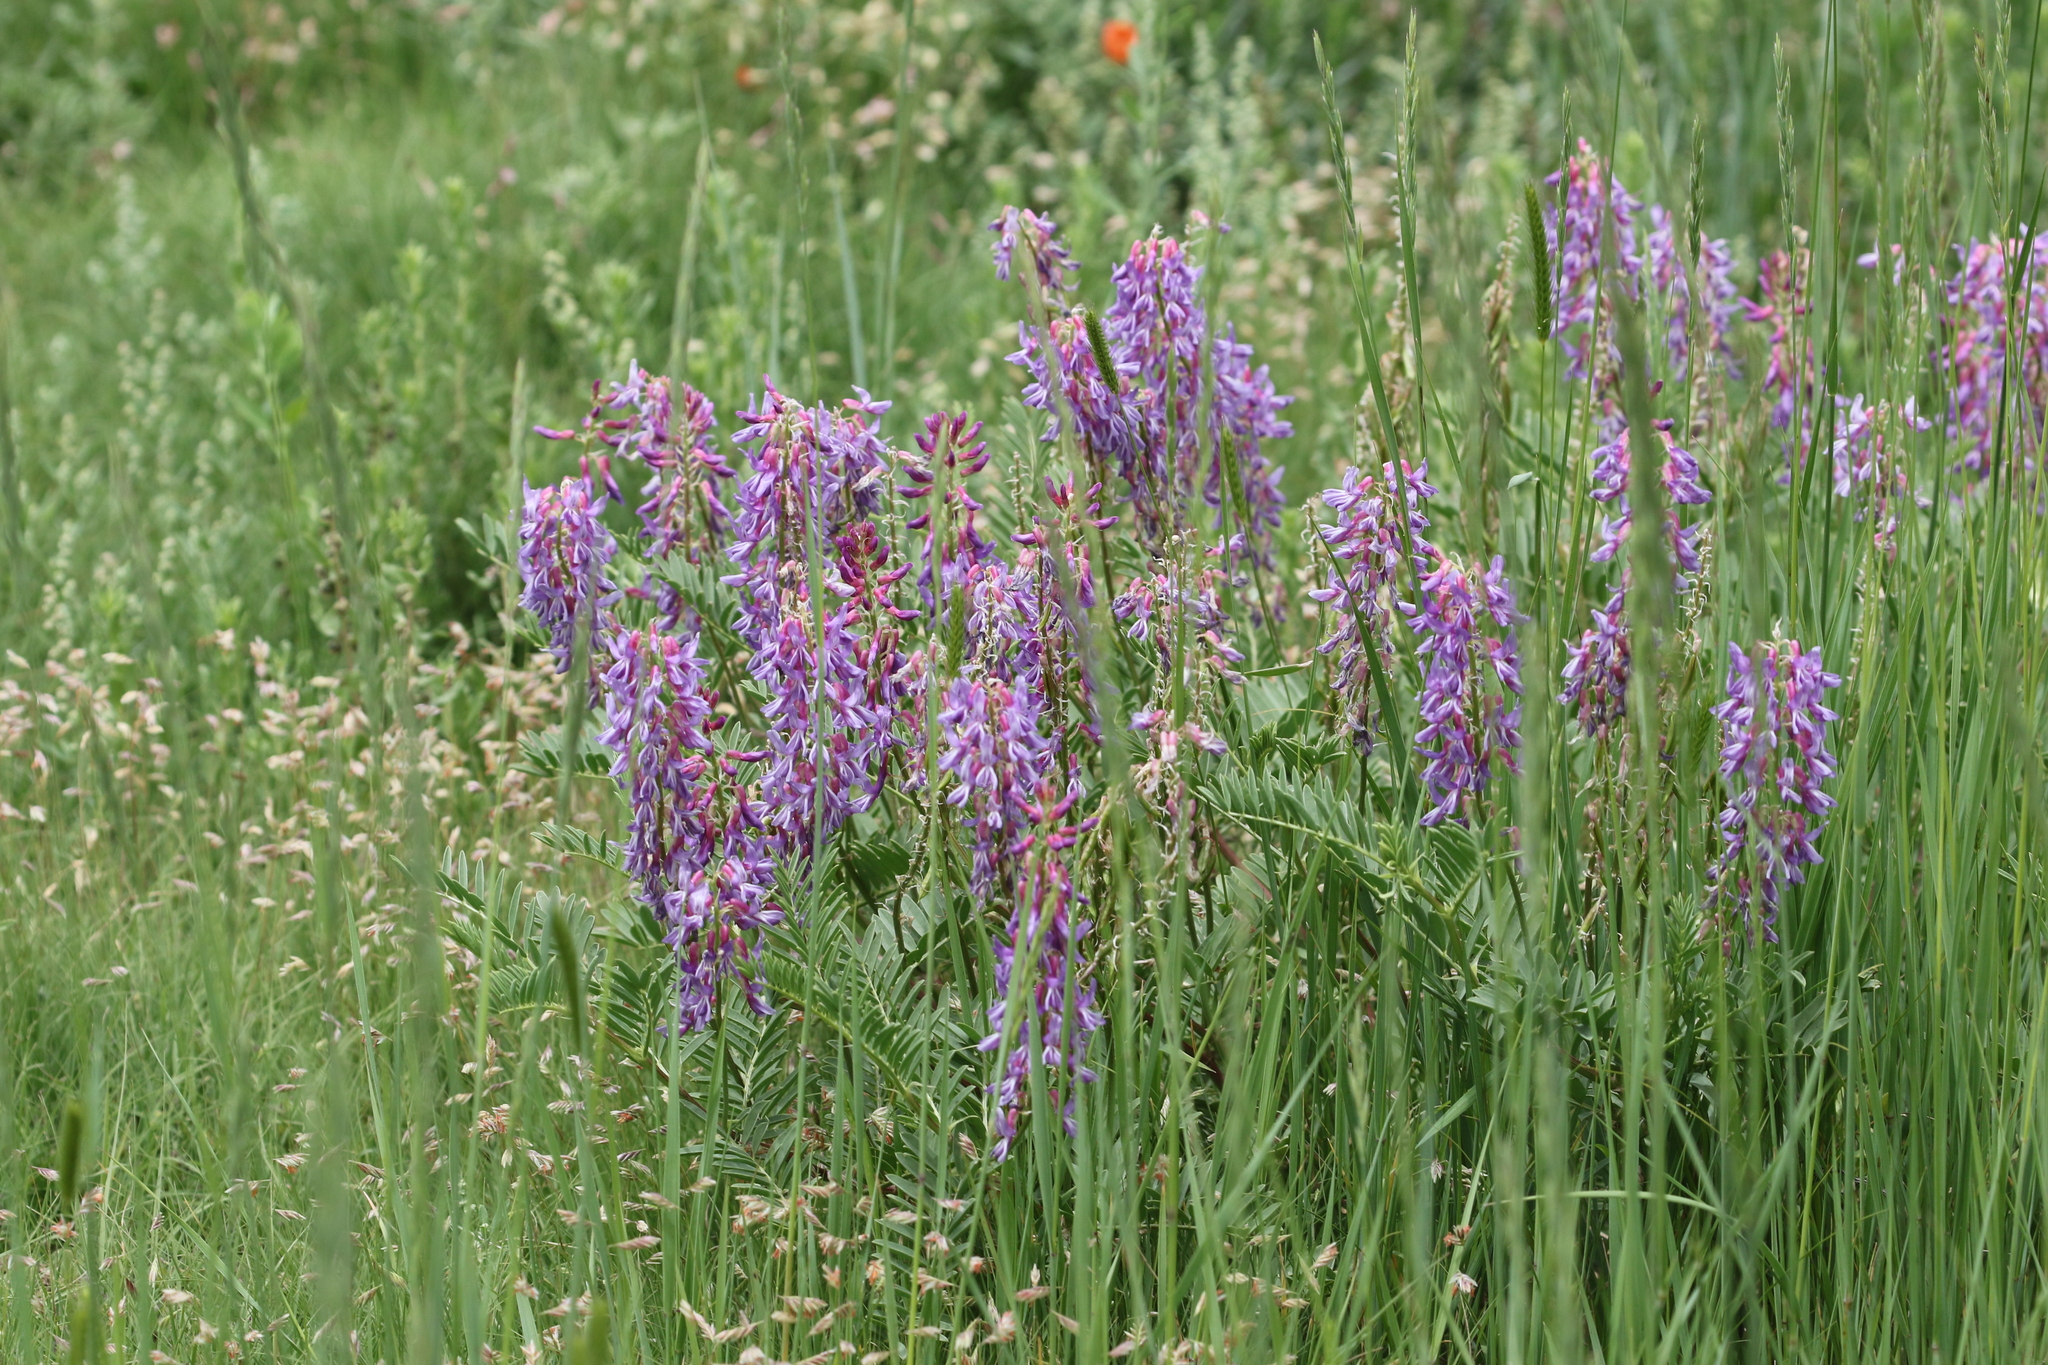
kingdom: Plantae
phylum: Tracheophyta
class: Magnoliopsida
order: Fabales
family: Fabaceae
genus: Astragalus
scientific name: Astragalus bisulcatus
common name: Two-groove milk-vetch
